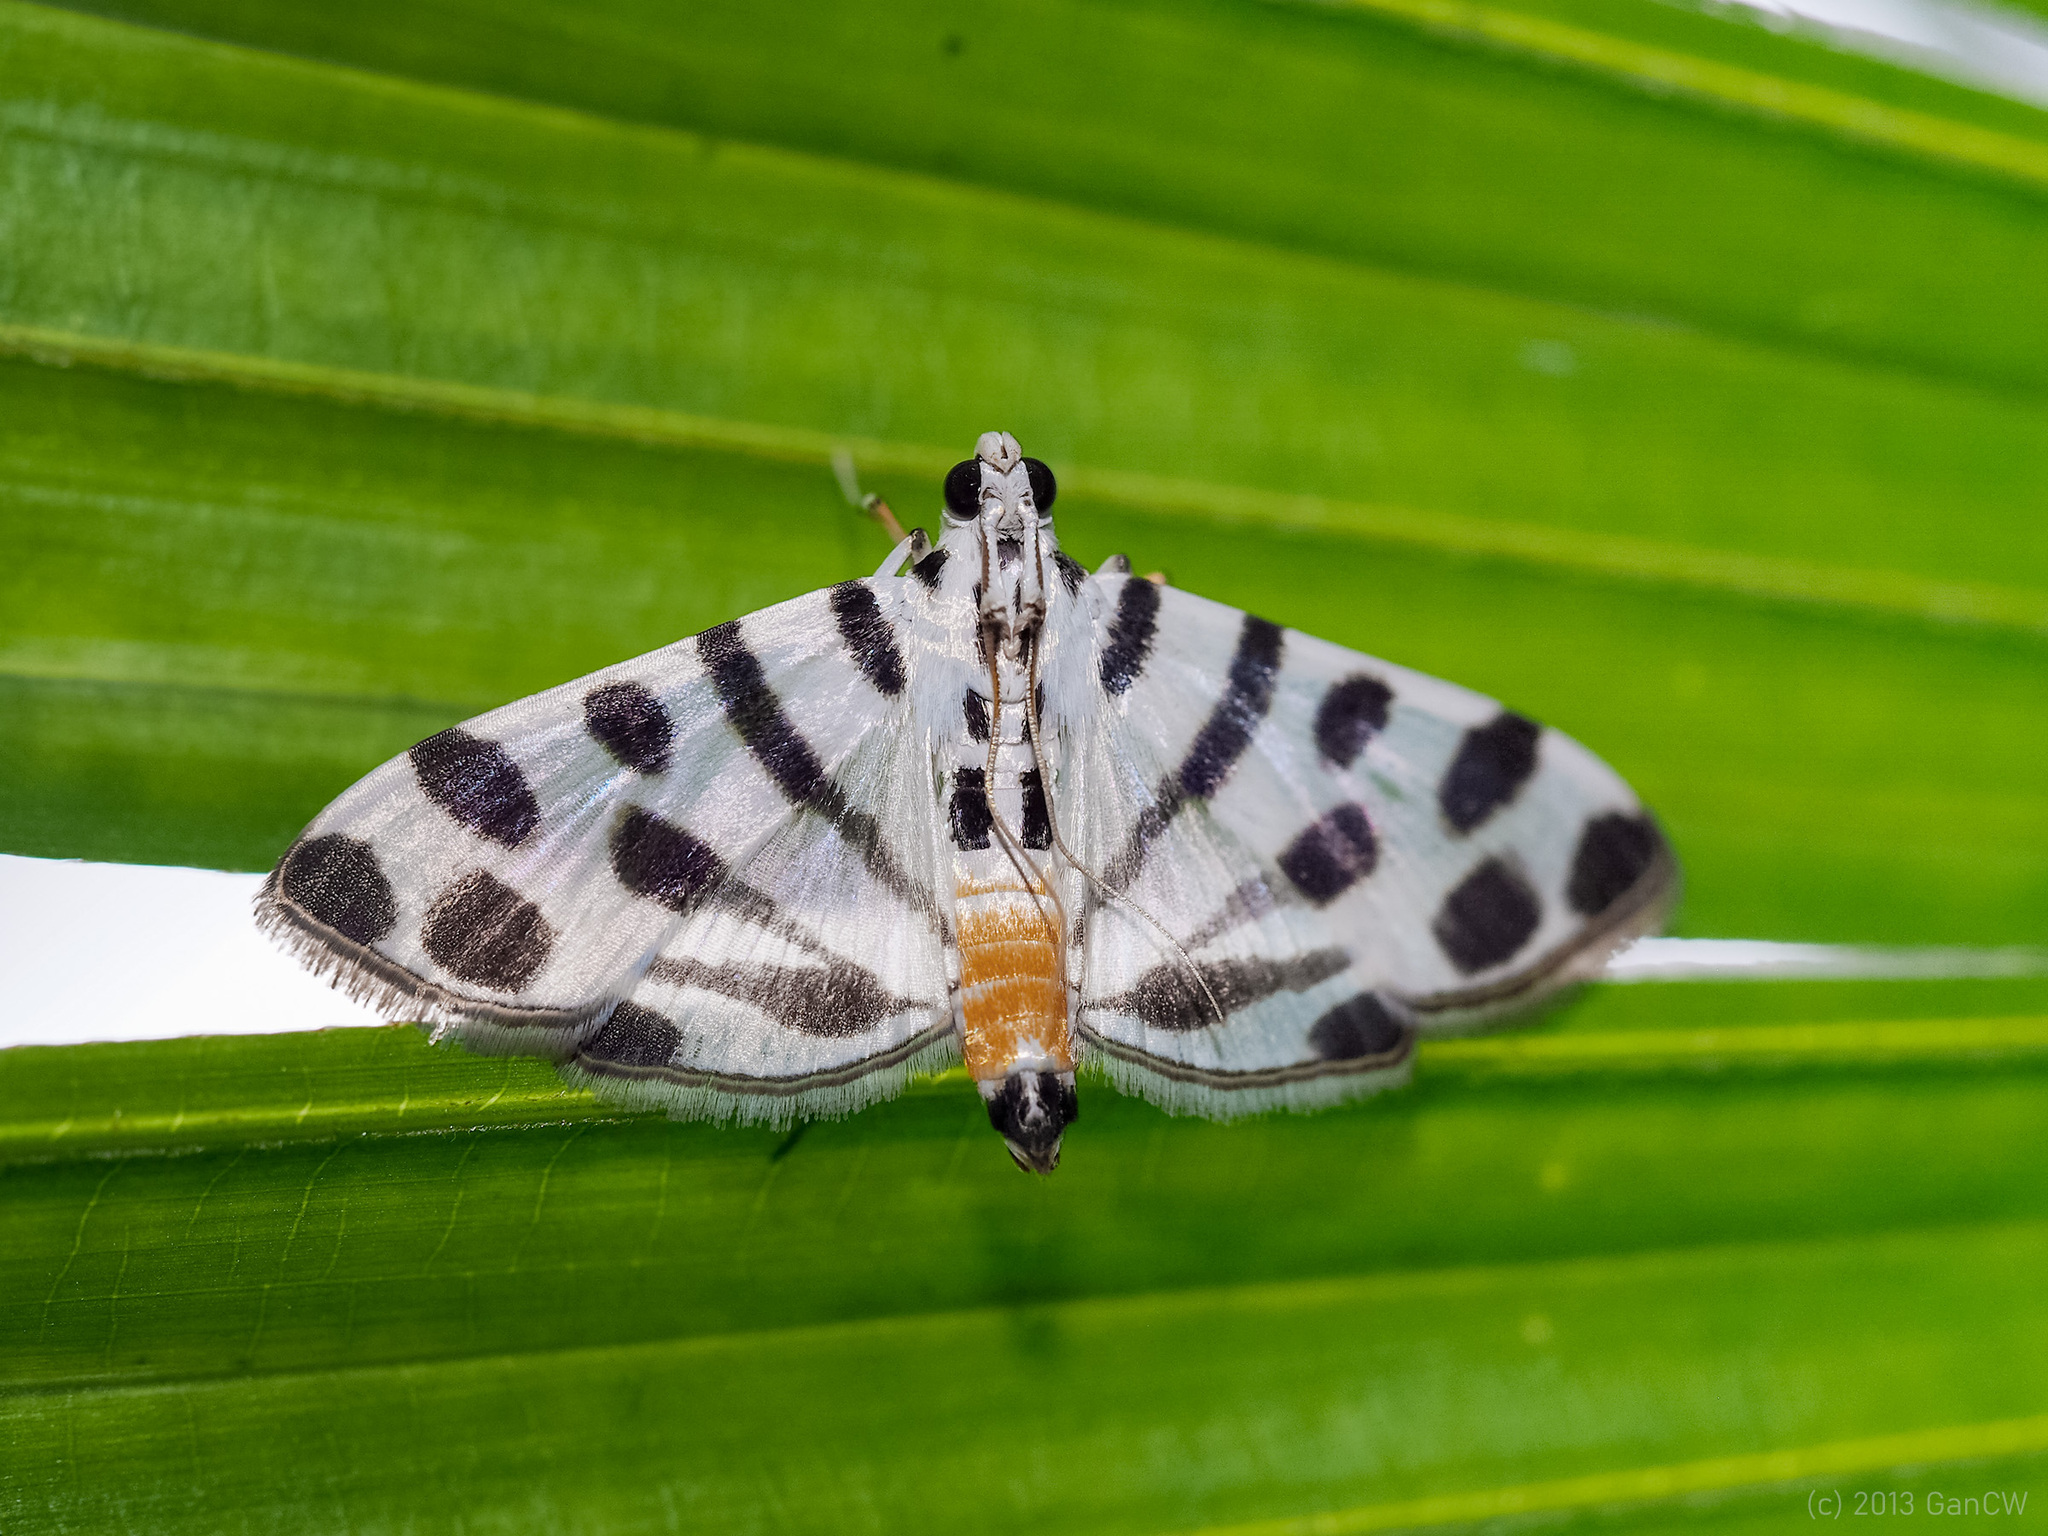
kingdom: Animalia
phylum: Arthropoda
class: Insecta
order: Lepidoptera
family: Crambidae
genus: Pycnarmon
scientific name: Pycnarmon jaguaralis
